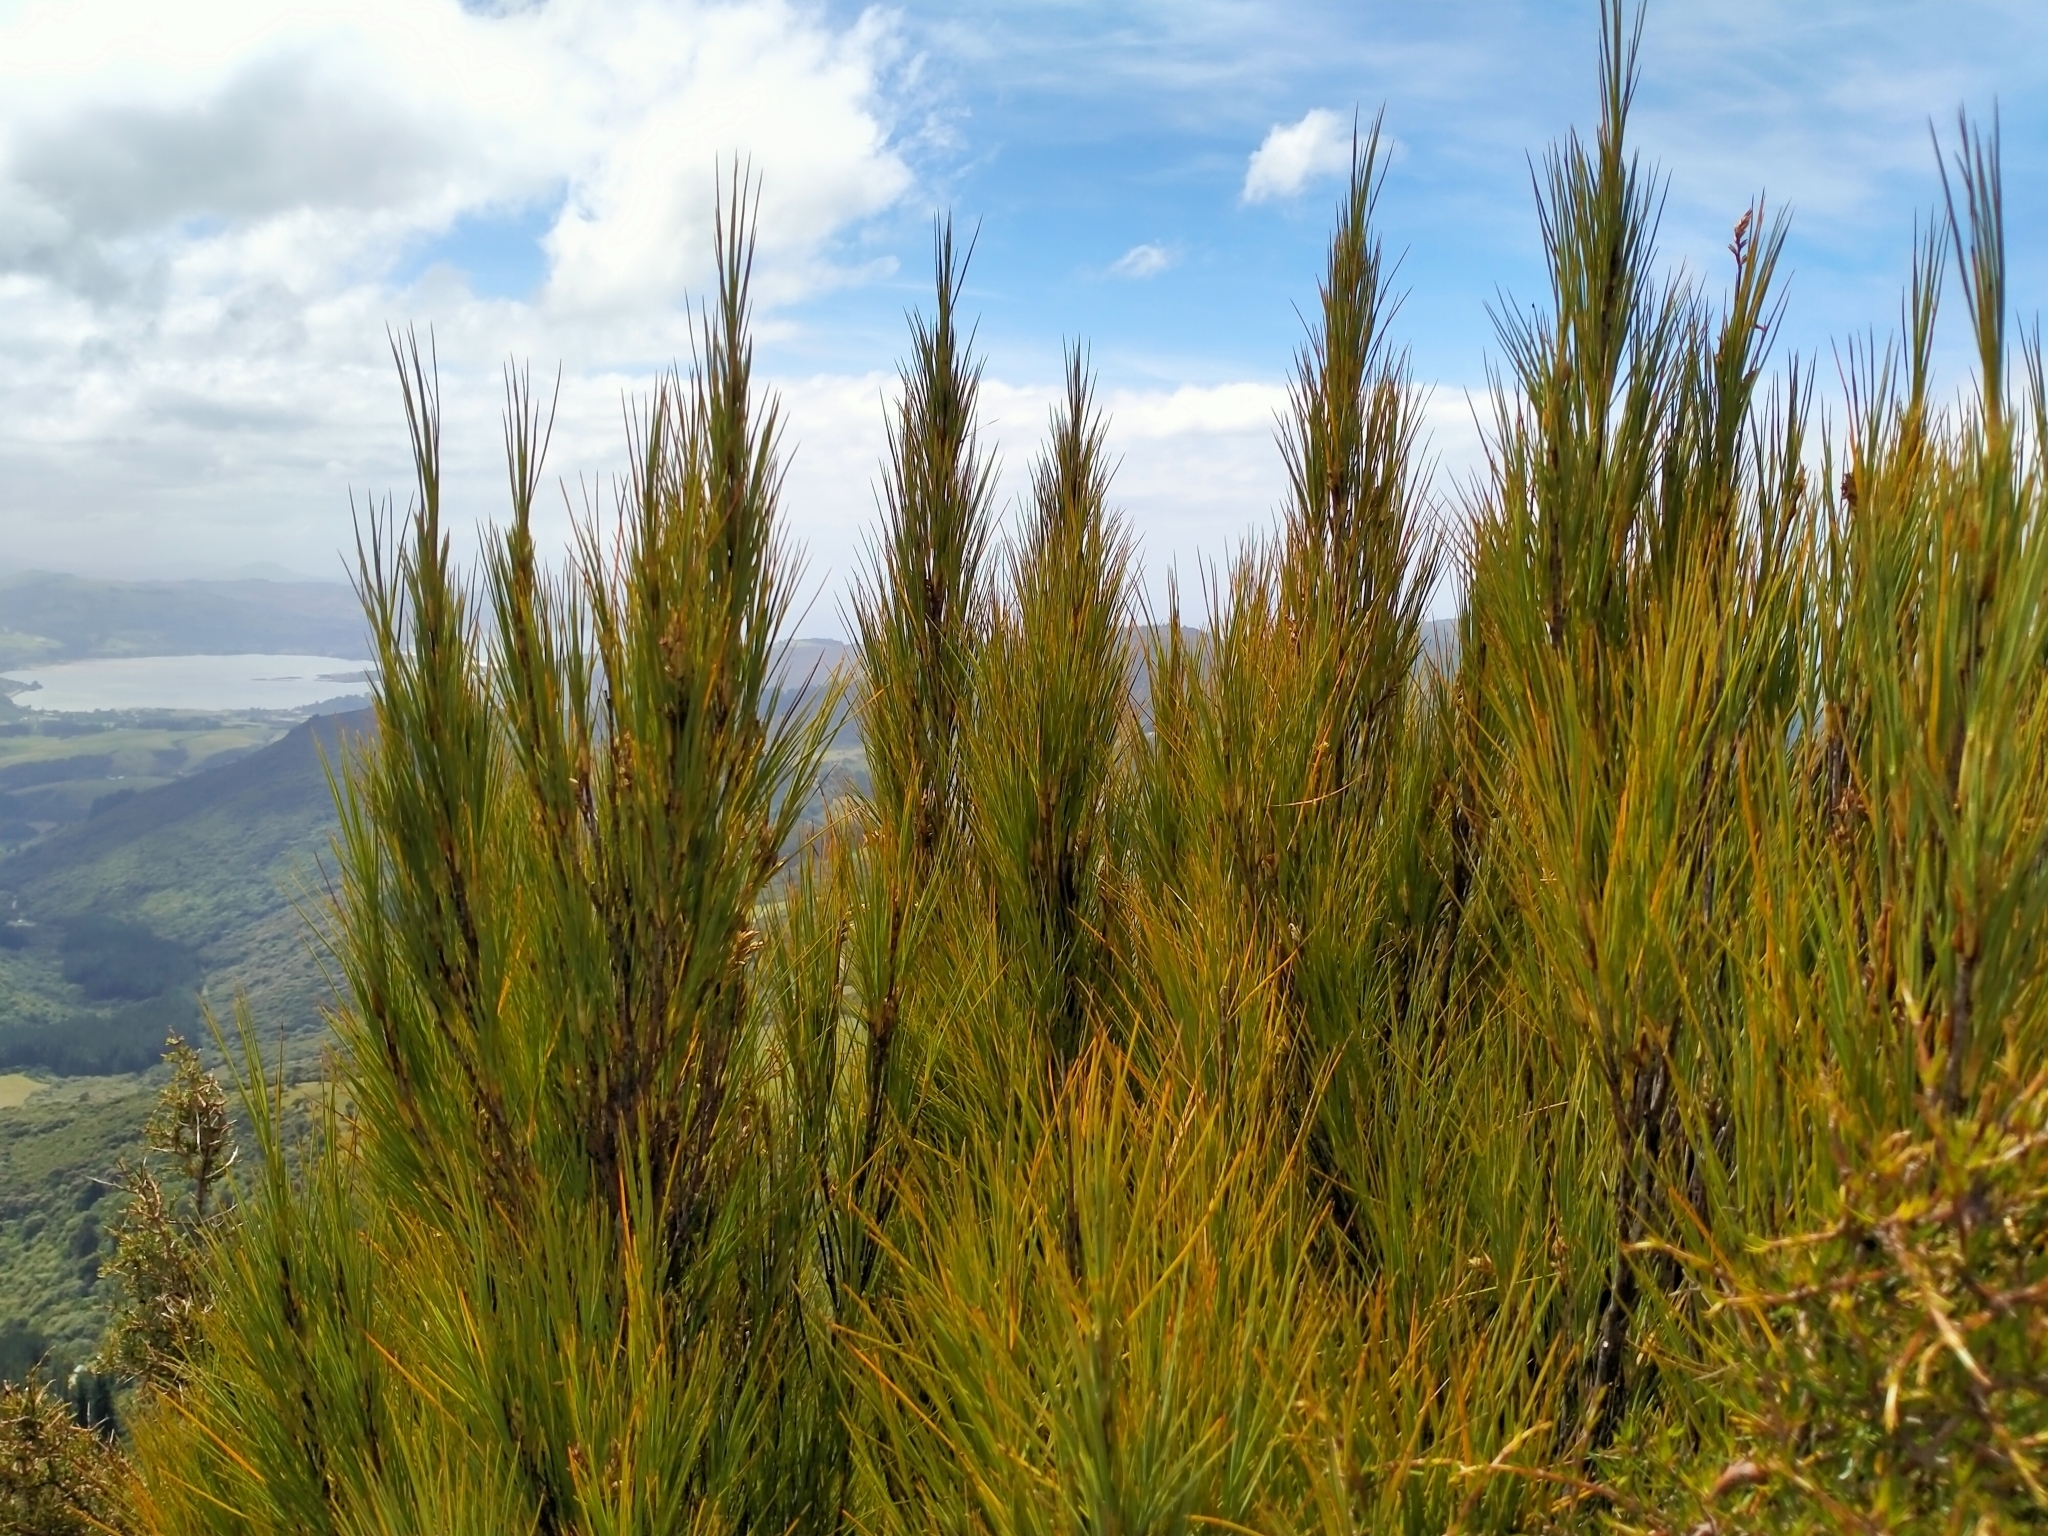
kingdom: Plantae
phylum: Tracheophyta
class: Magnoliopsida
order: Ericales
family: Ericaceae
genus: Dracophyllum
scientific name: Dracophyllum longifolium
